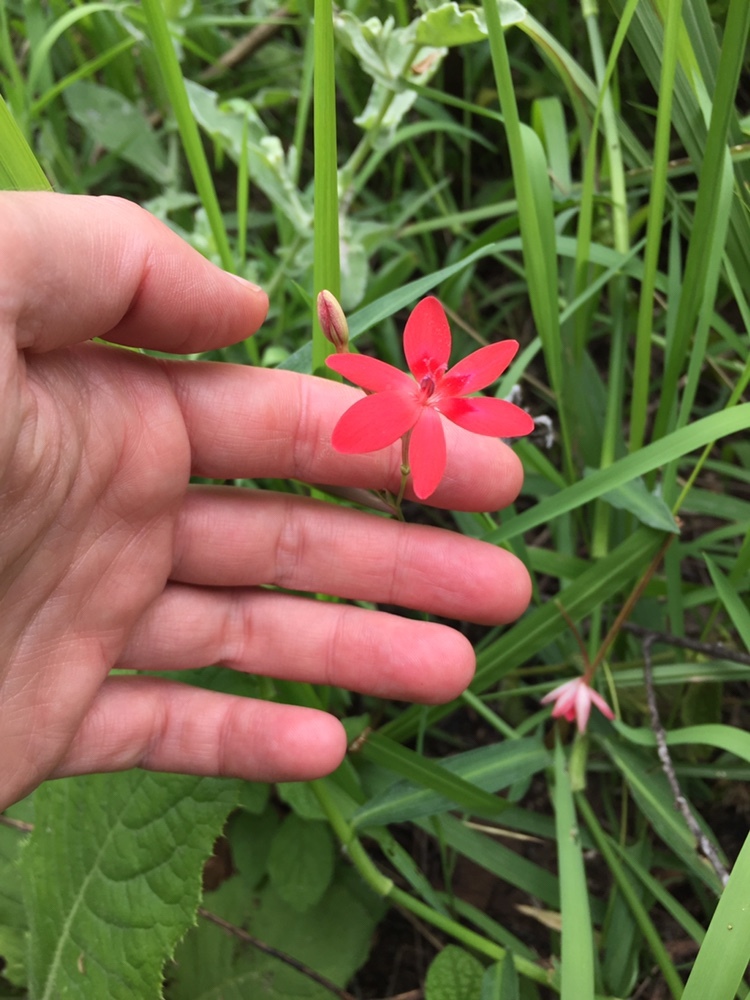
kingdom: Plantae
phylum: Tracheophyta
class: Liliopsida
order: Asparagales
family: Iridaceae
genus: Freesia
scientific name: Freesia laxa
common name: False freesia
